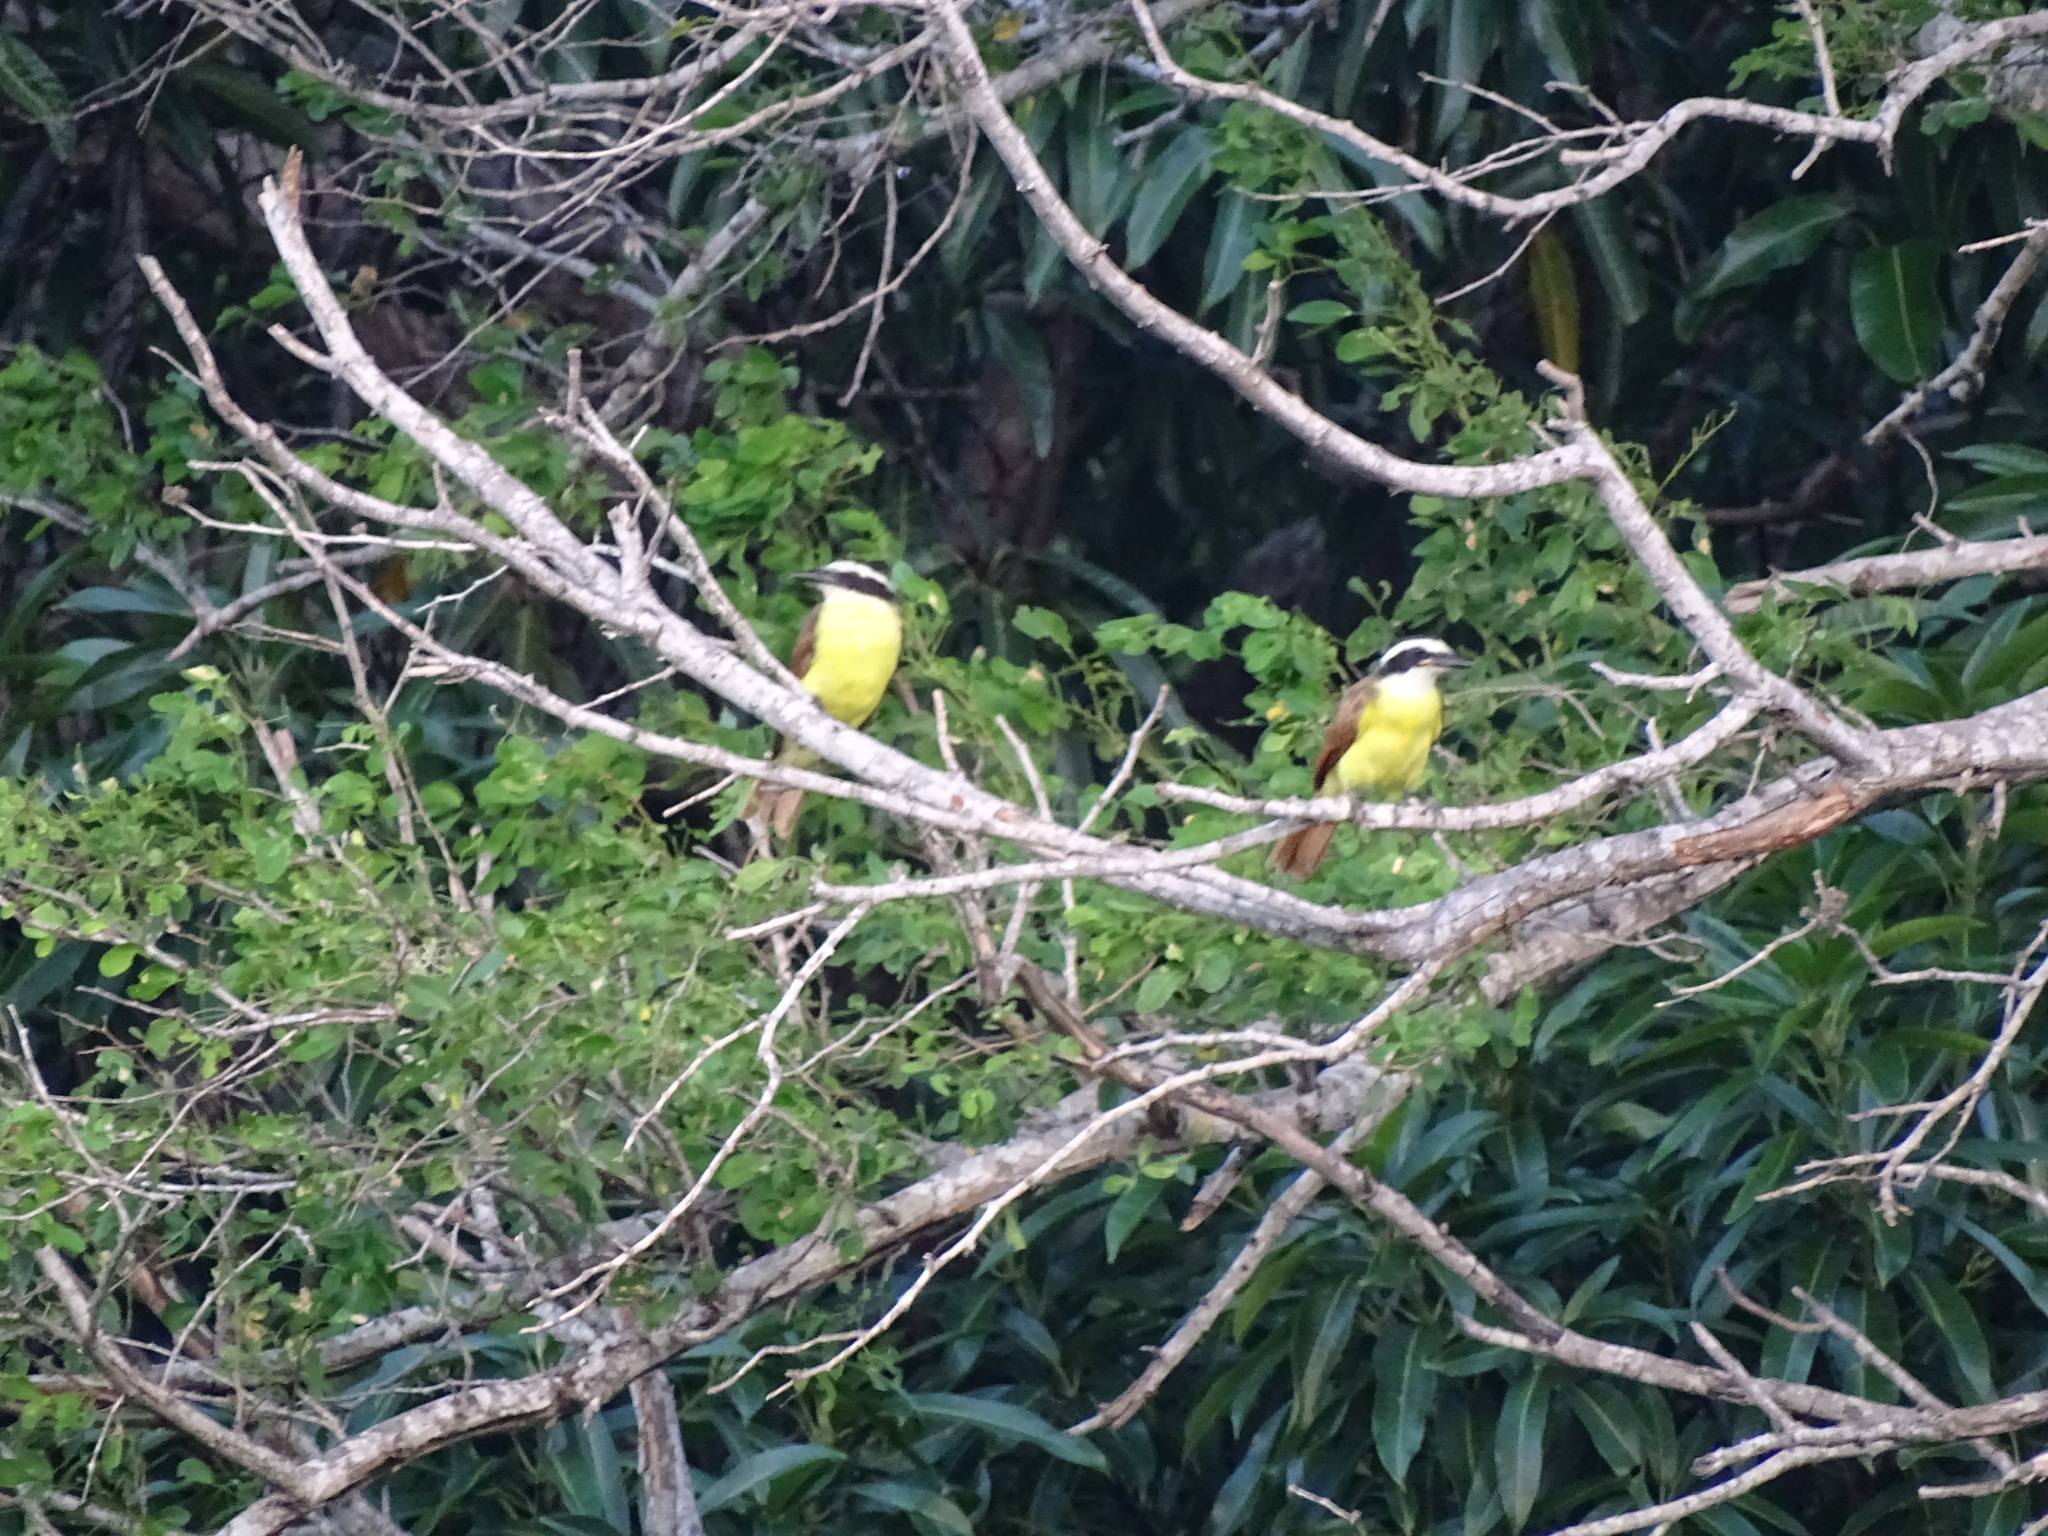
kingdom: Animalia
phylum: Chordata
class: Aves
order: Passeriformes
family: Tyrannidae
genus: Pitangus
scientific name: Pitangus sulphuratus
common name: Great kiskadee
